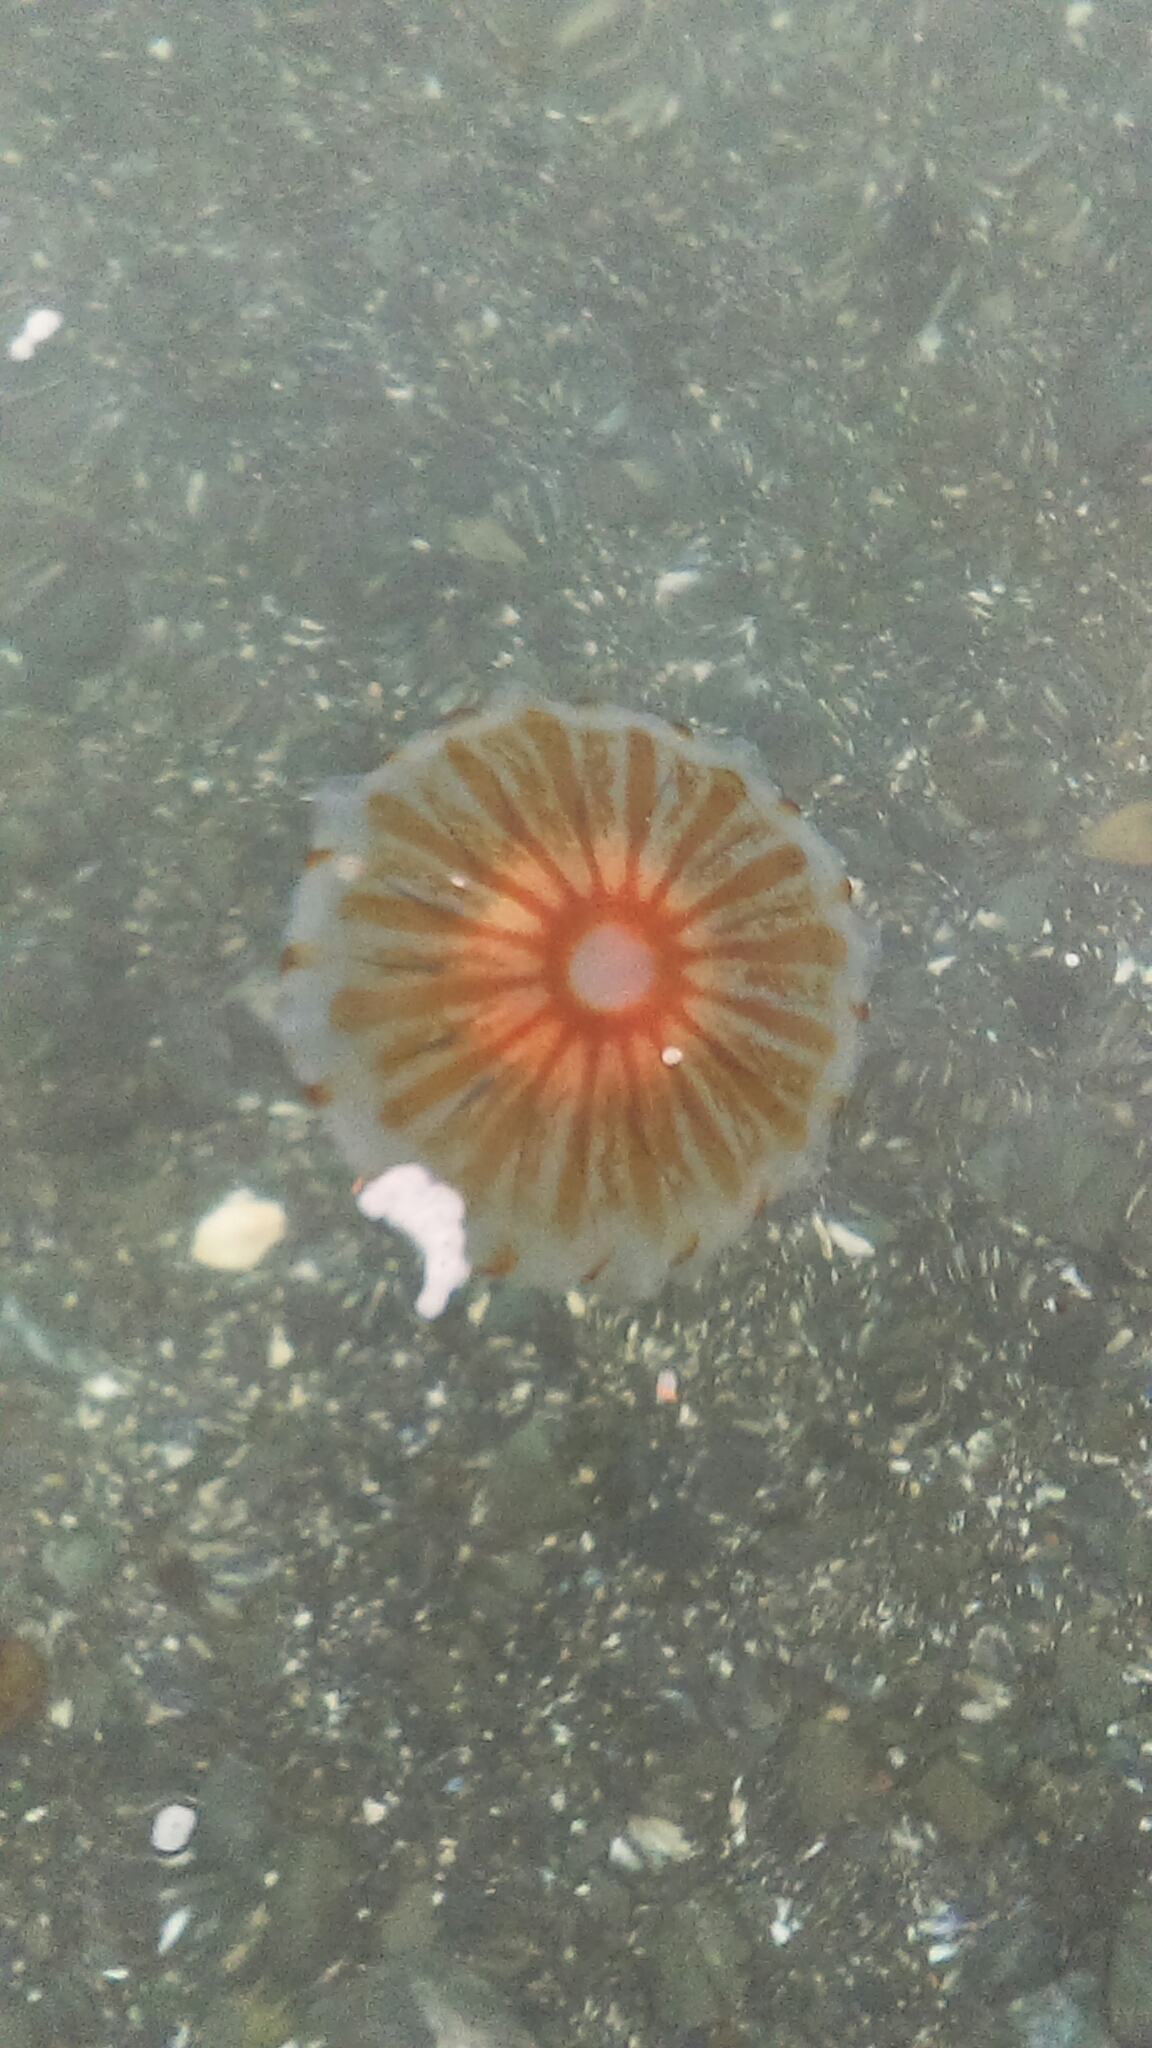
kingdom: Animalia
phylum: Cnidaria
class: Scyphozoa
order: Semaeostomeae
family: Pelagiidae
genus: Chrysaora
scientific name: Chrysaora melanaster
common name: Northern sea nettle
